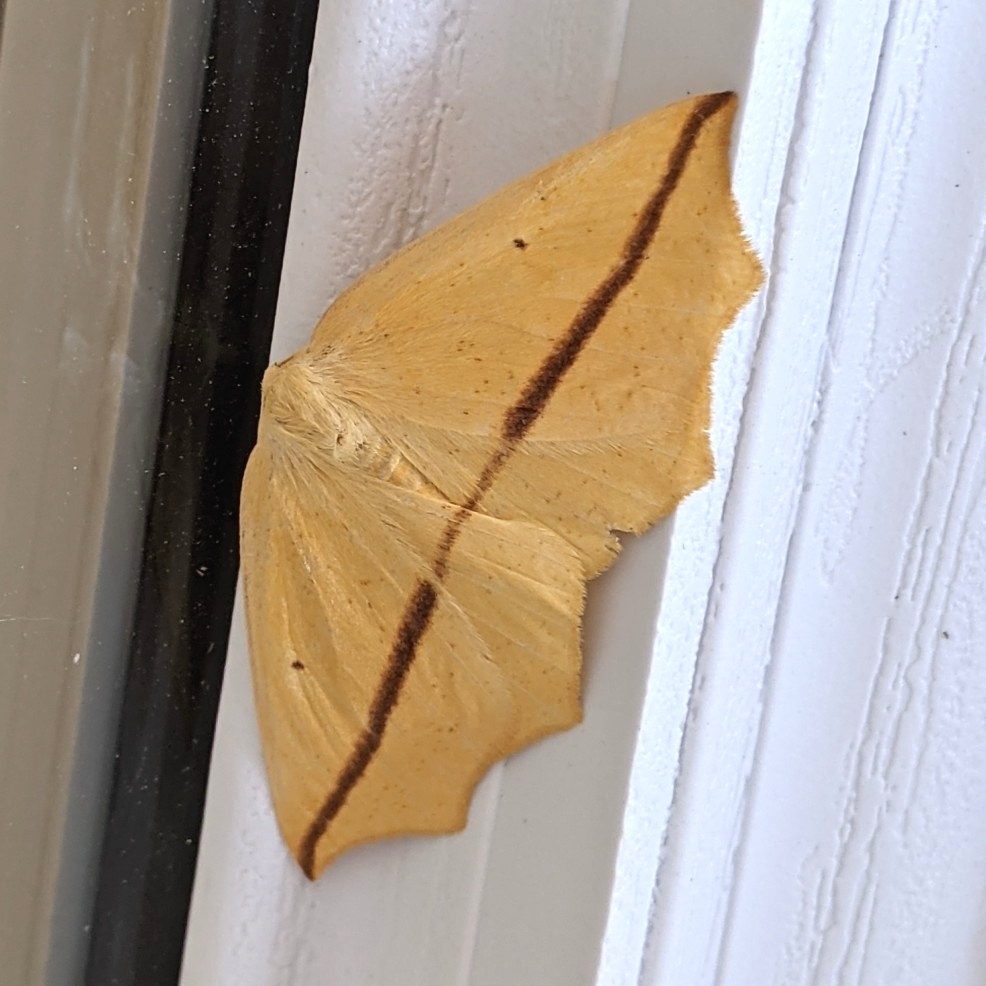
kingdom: Animalia
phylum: Arthropoda
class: Insecta
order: Lepidoptera
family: Geometridae
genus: Tetracis
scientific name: Tetracis crocallata
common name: Yellow slant-line
